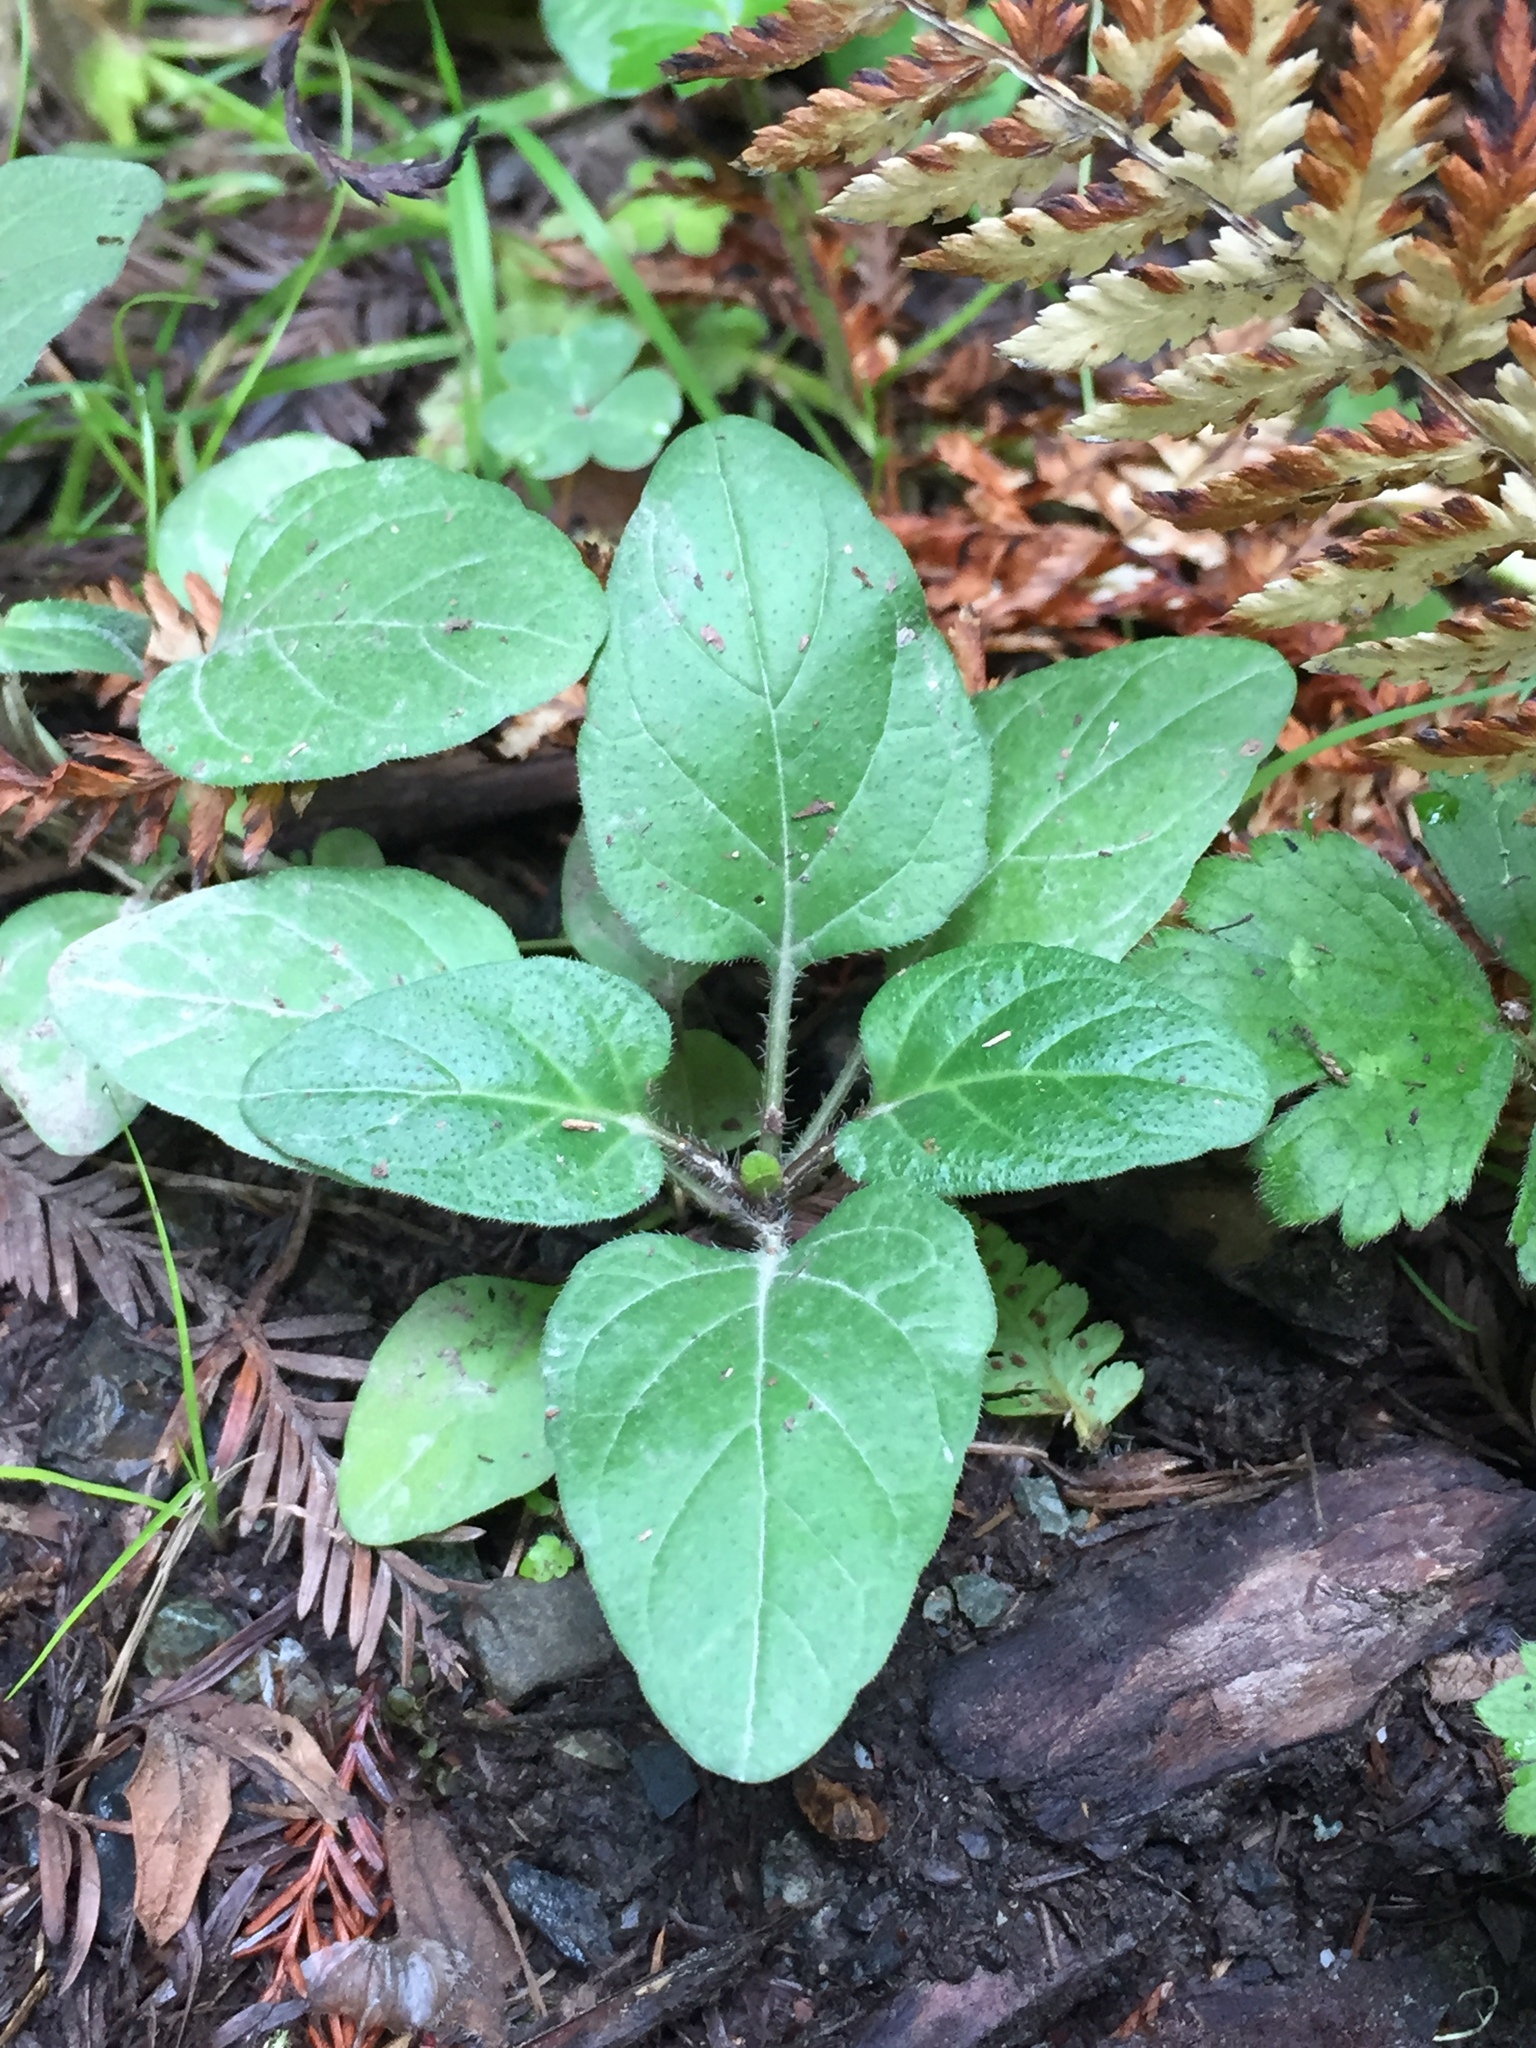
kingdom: Plantae
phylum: Tracheophyta
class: Magnoliopsida
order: Lamiales
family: Lamiaceae
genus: Prunella
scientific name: Prunella vulgaris
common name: Heal-all
